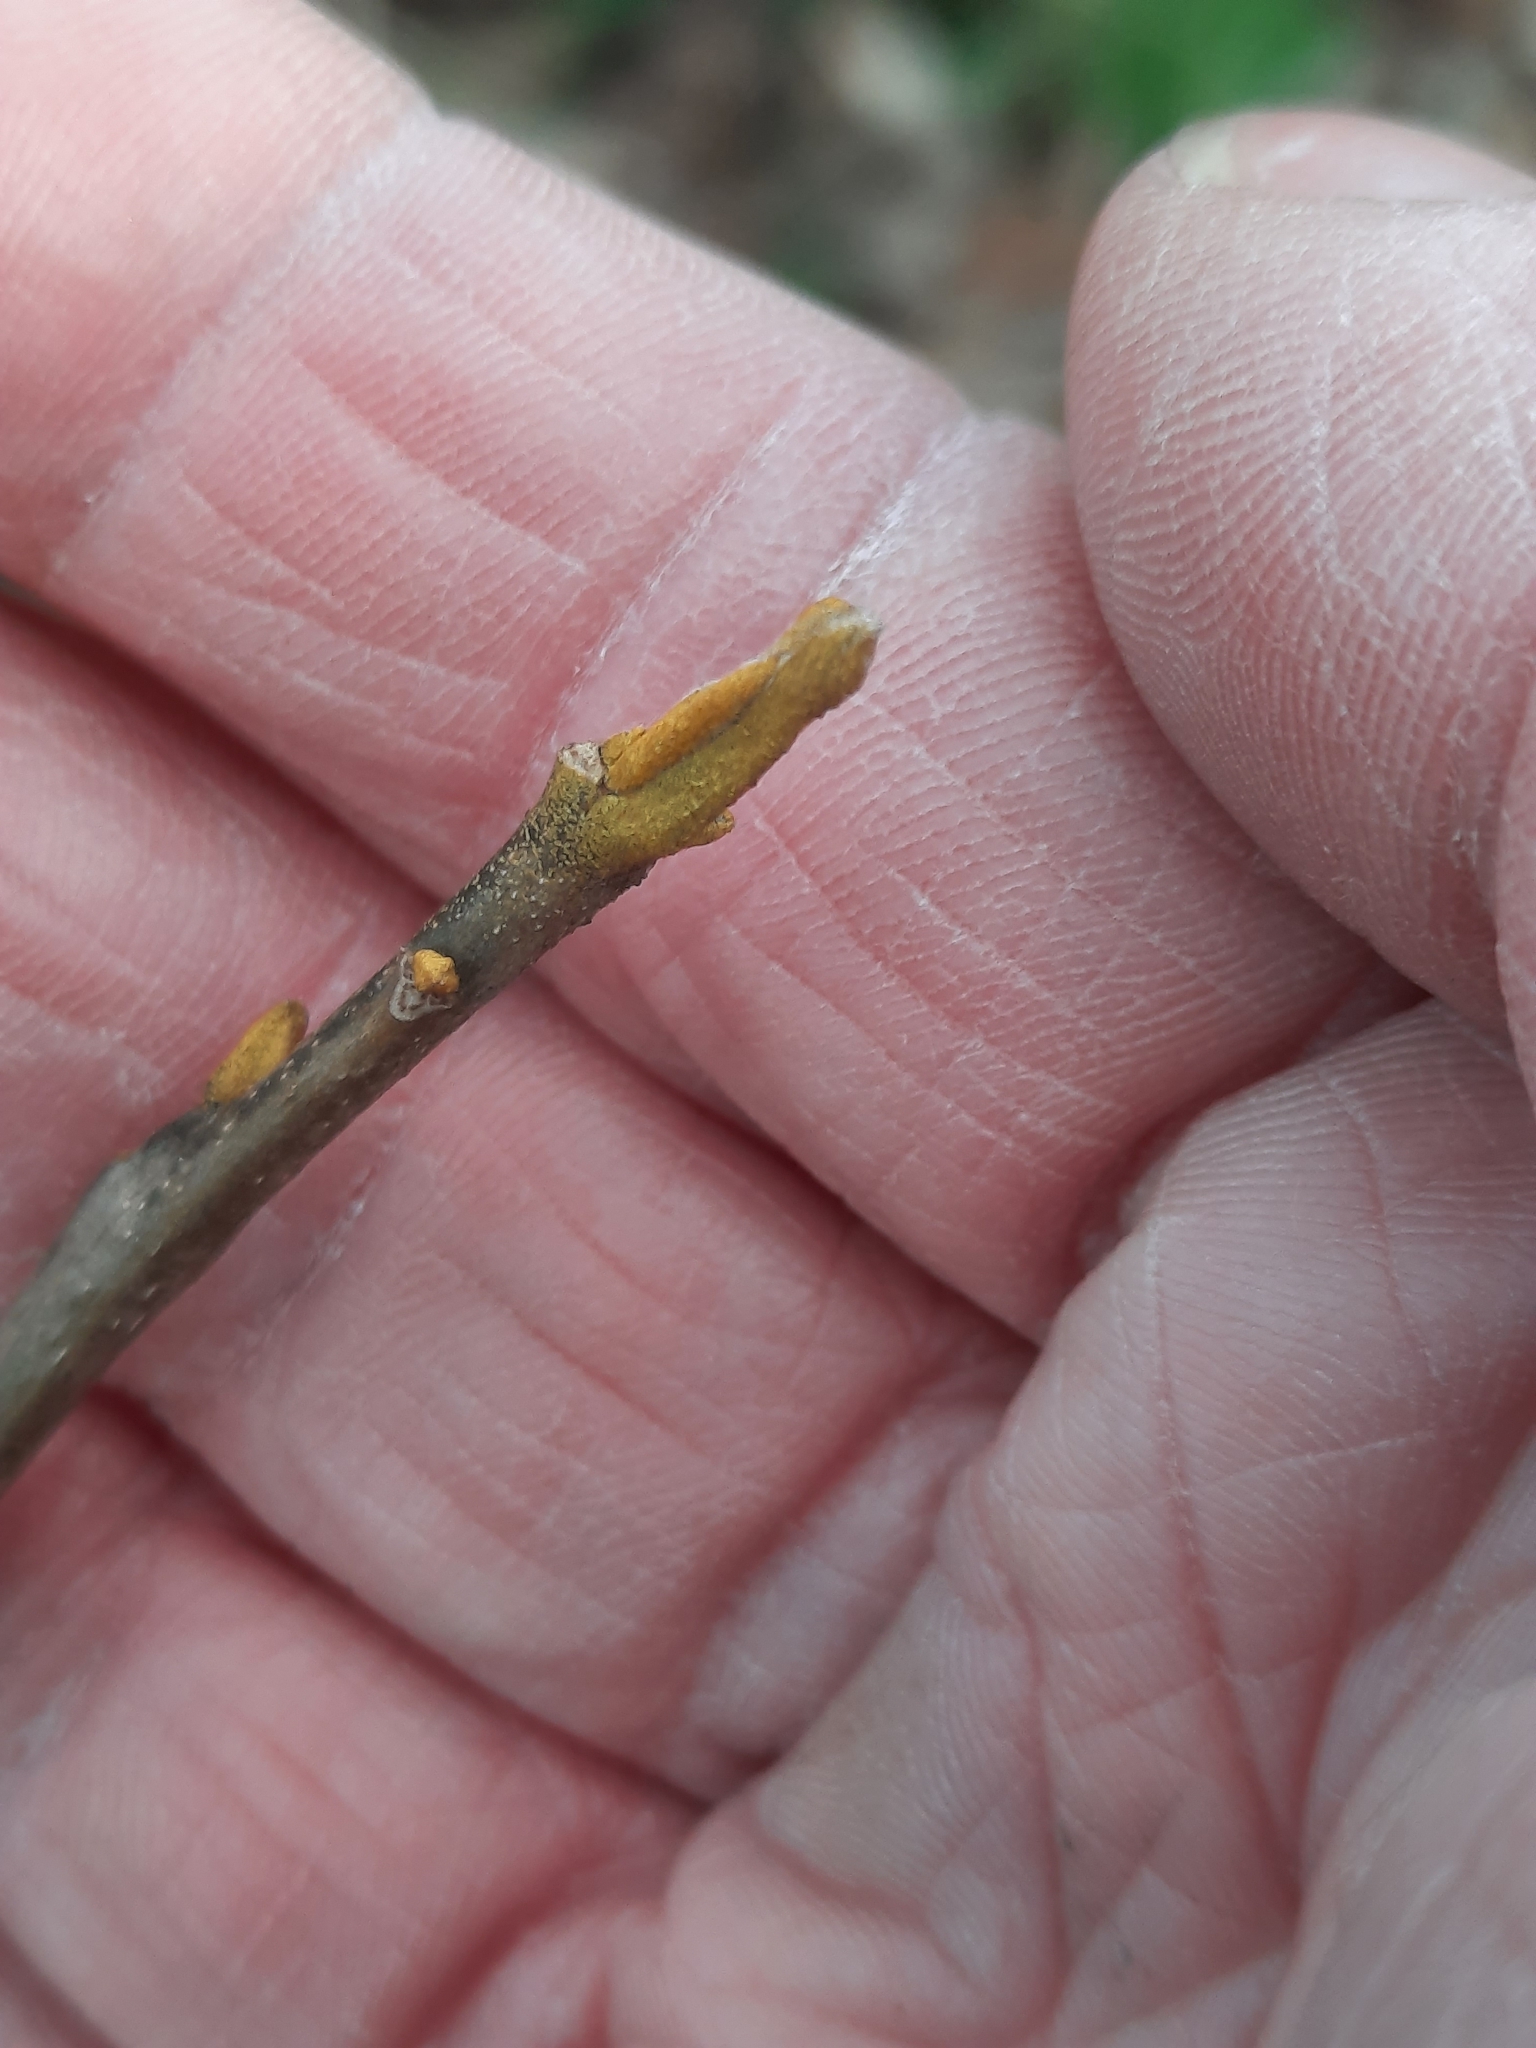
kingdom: Plantae
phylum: Tracheophyta
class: Magnoliopsida
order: Fagales
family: Juglandaceae
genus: Carya
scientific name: Carya cordiformis
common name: Bitternut hickory
